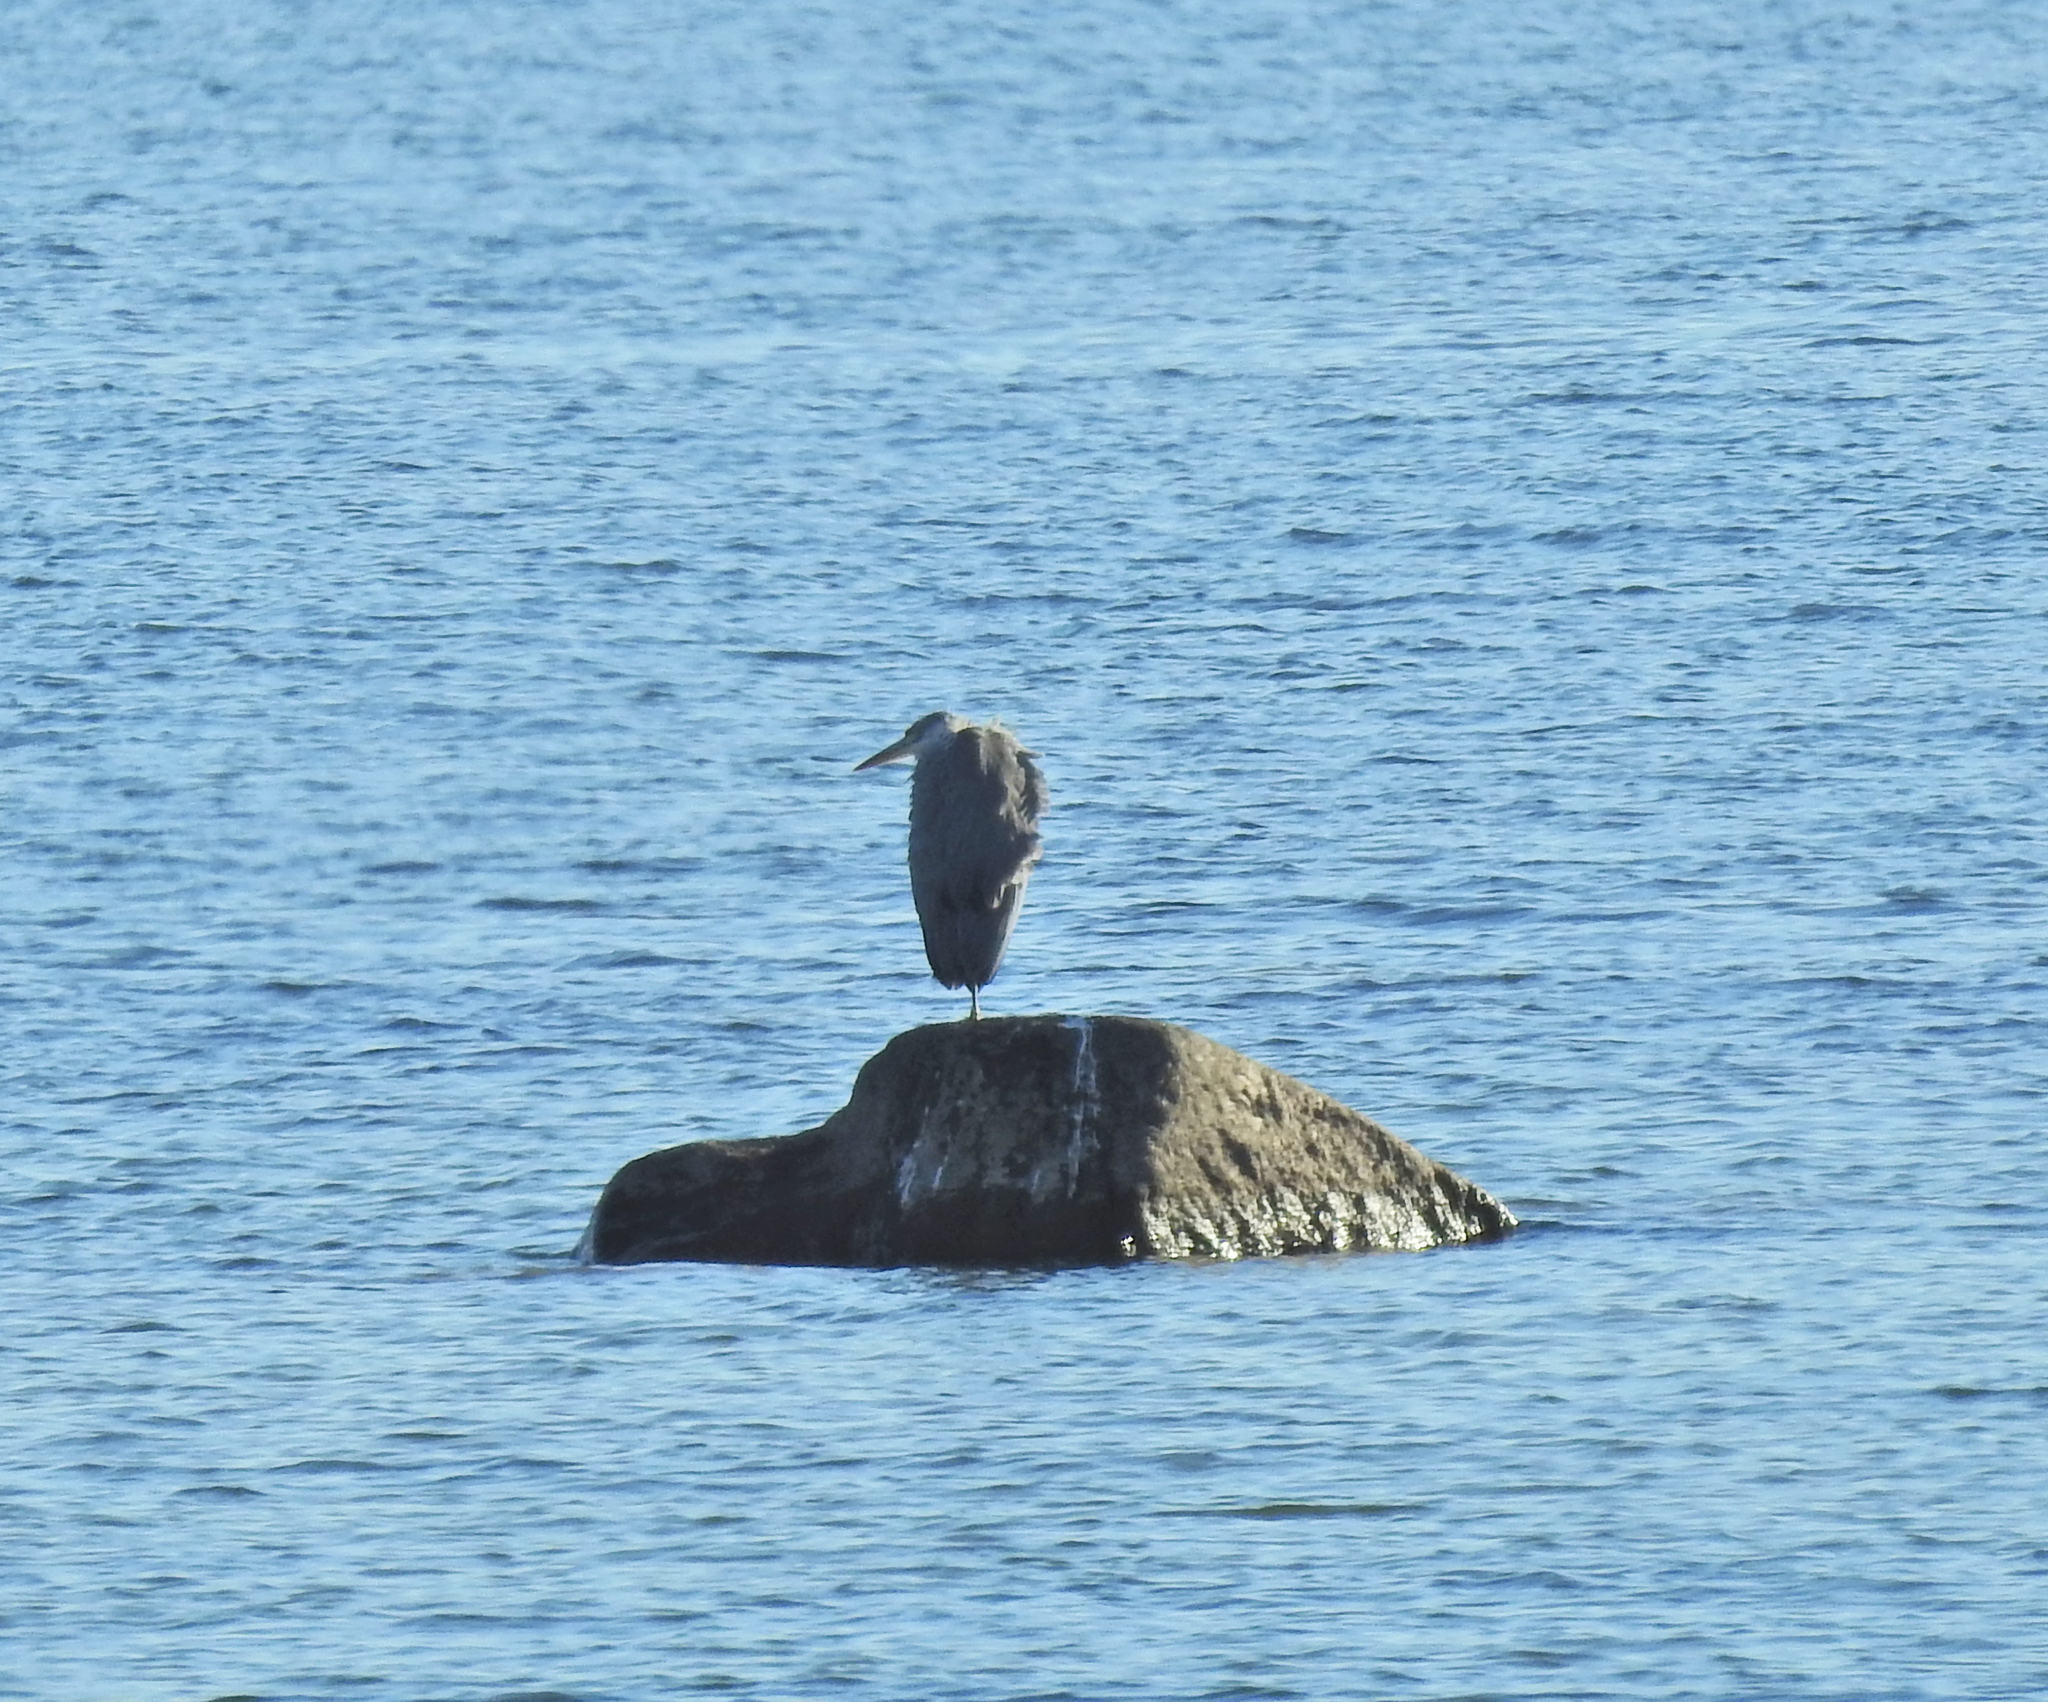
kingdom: Animalia
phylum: Chordata
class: Aves
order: Pelecaniformes
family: Ardeidae
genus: Ardea
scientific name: Ardea cinerea
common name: Grey heron
